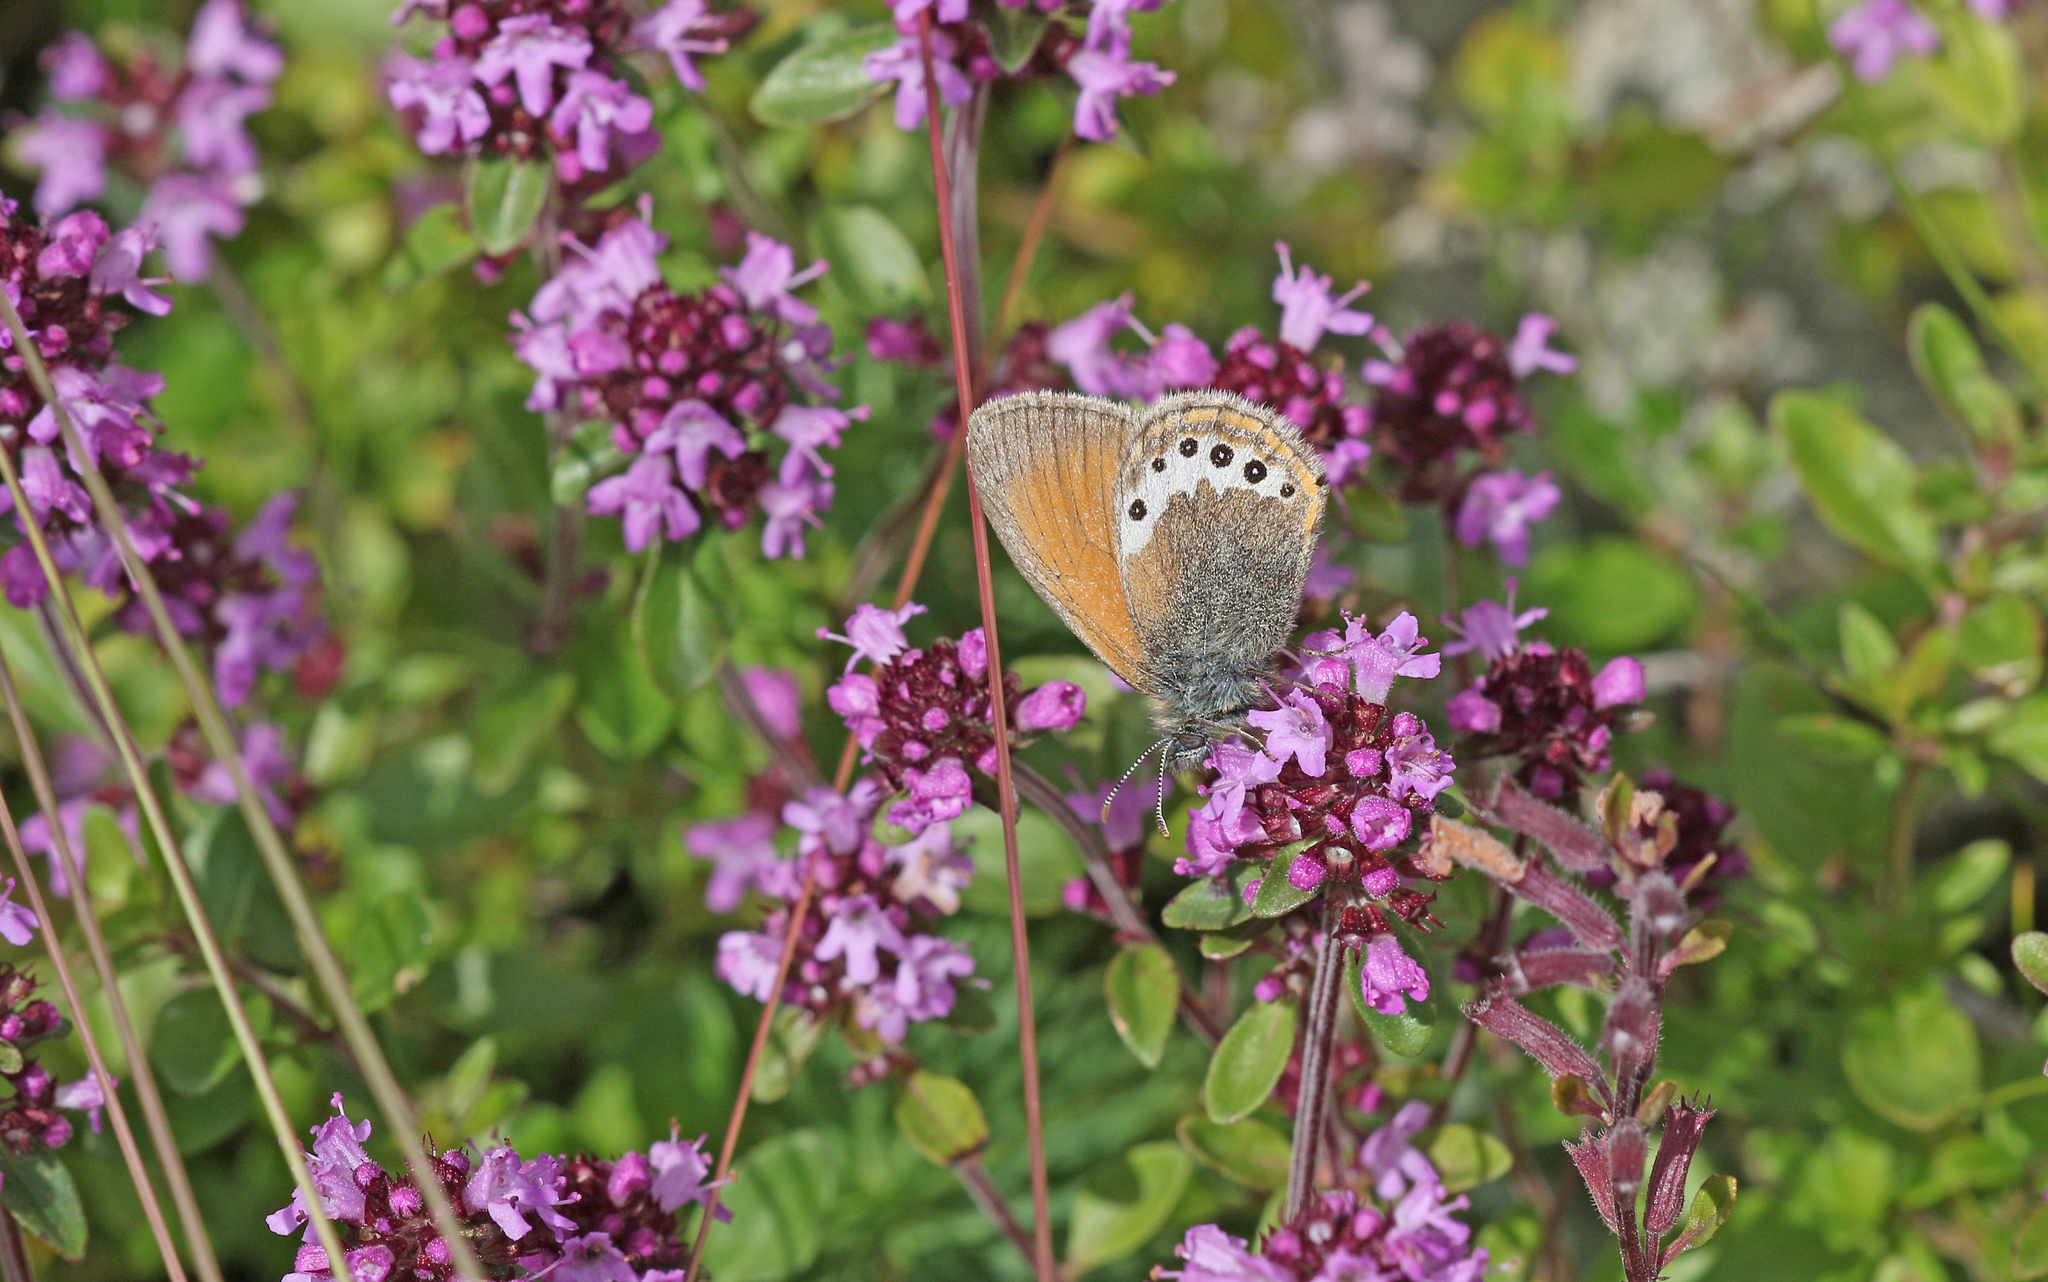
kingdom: Animalia
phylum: Arthropoda
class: Insecta
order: Lepidoptera
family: Nymphalidae
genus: Coenonympha
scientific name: Coenonympha
